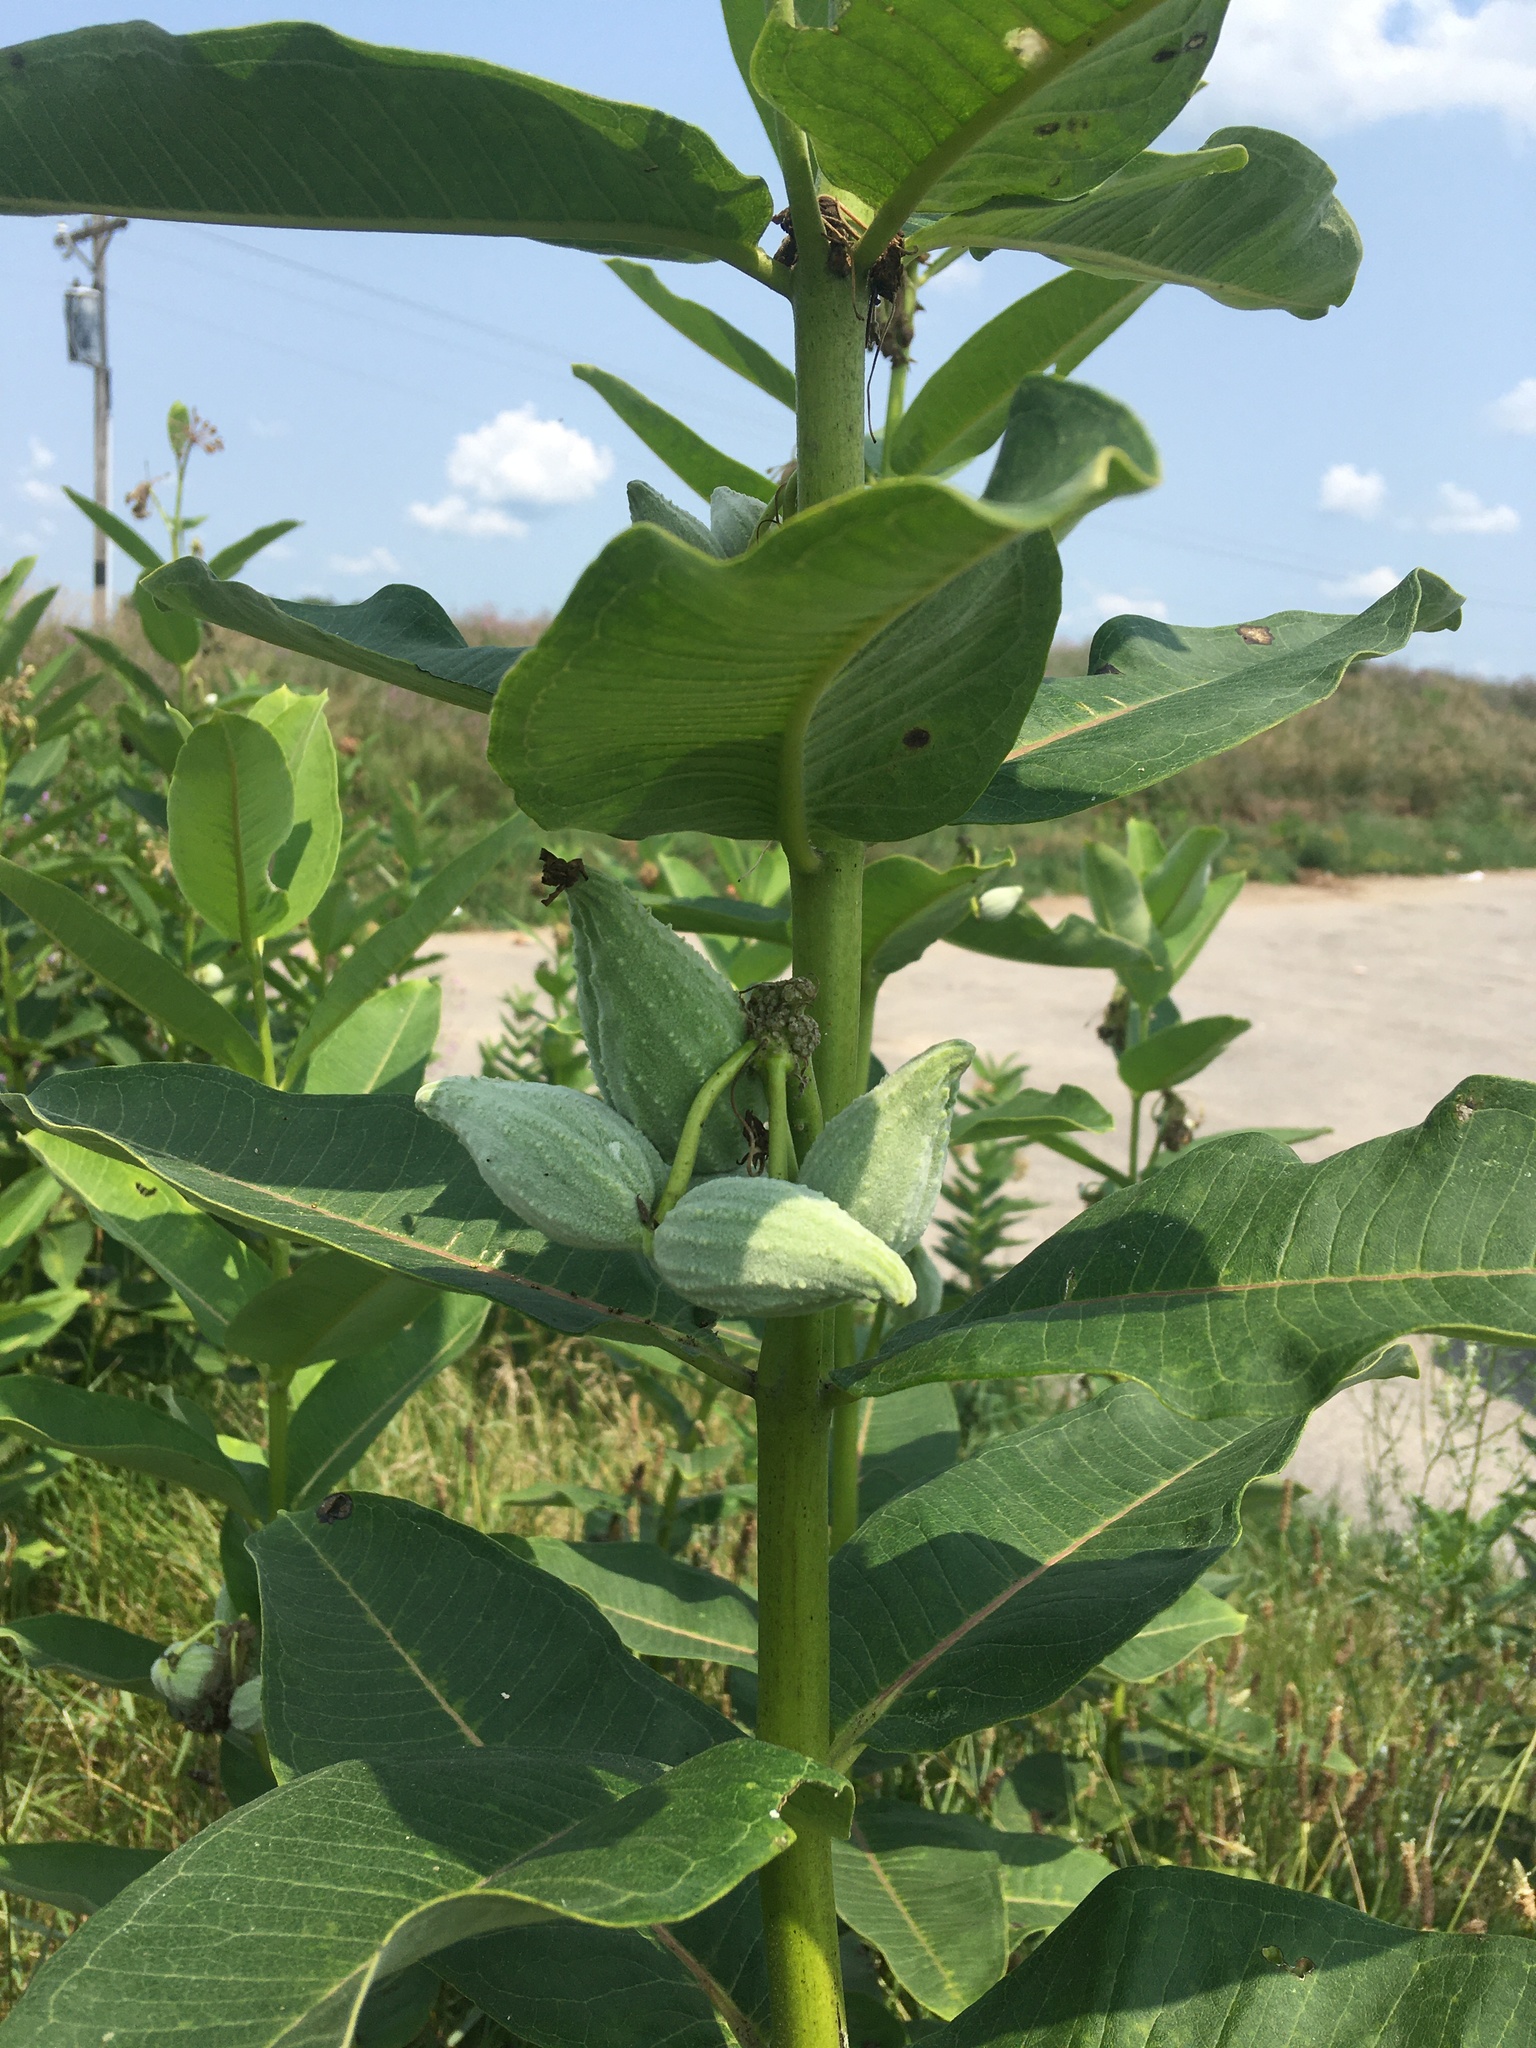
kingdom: Plantae
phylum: Tracheophyta
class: Magnoliopsida
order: Gentianales
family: Apocynaceae
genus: Asclepias
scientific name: Asclepias syriaca
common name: Common milkweed
